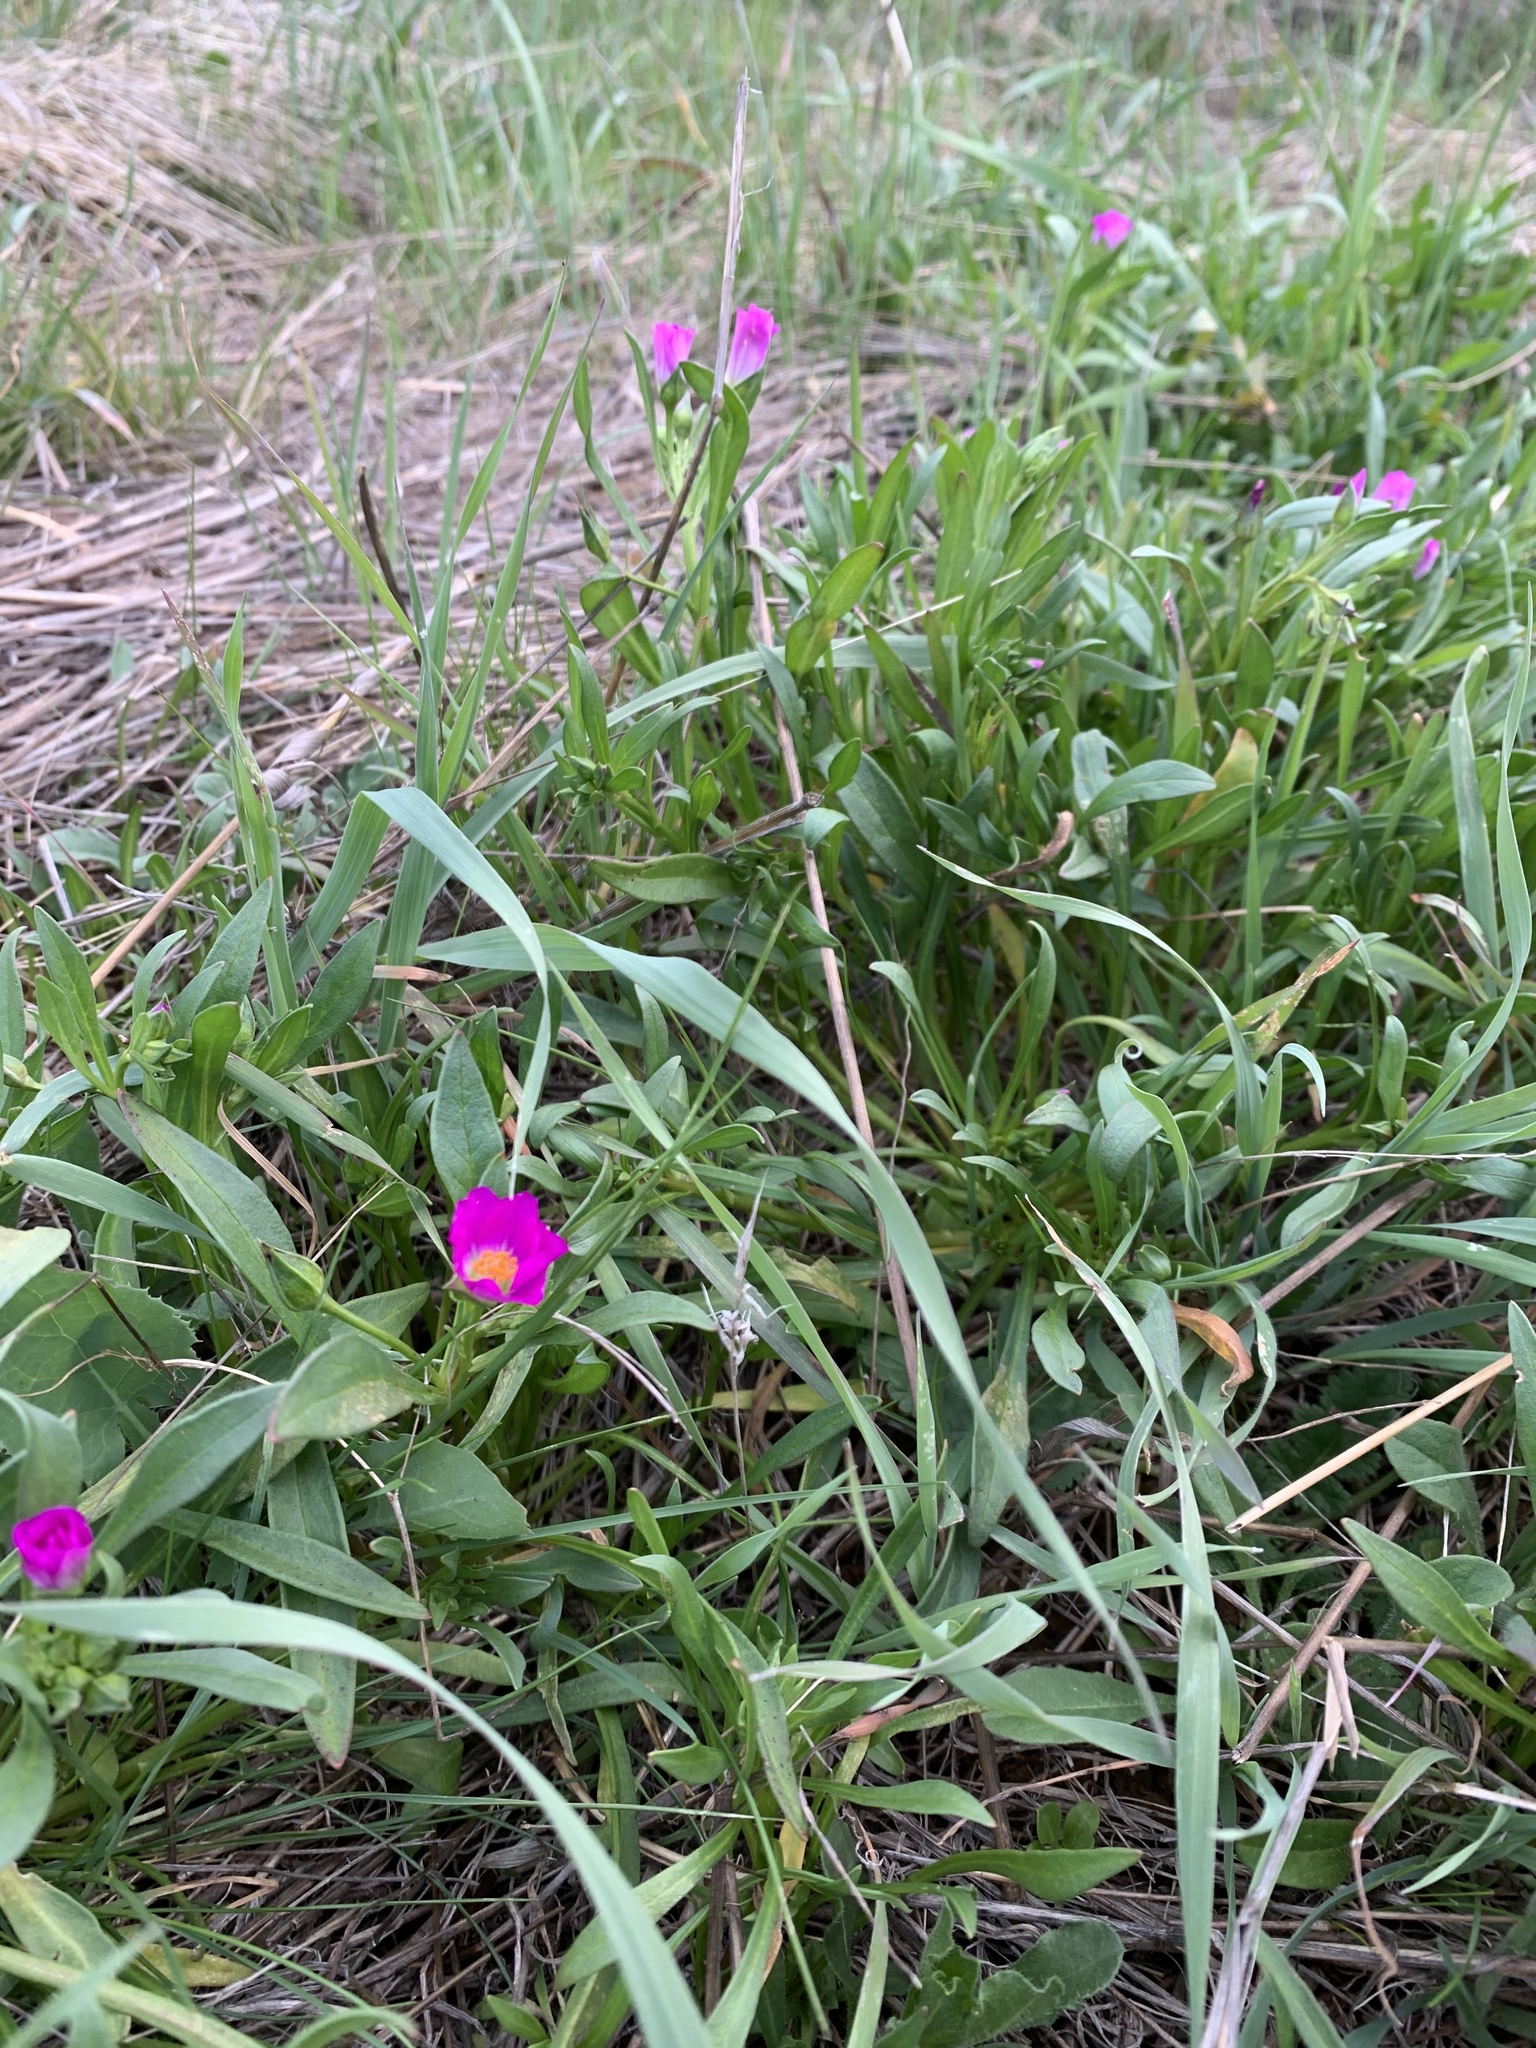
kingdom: Plantae
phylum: Tracheophyta
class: Magnoliopsida
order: Caryophyllales
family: Montiaceae
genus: Calandrinia
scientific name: Calandrinia menziesii
